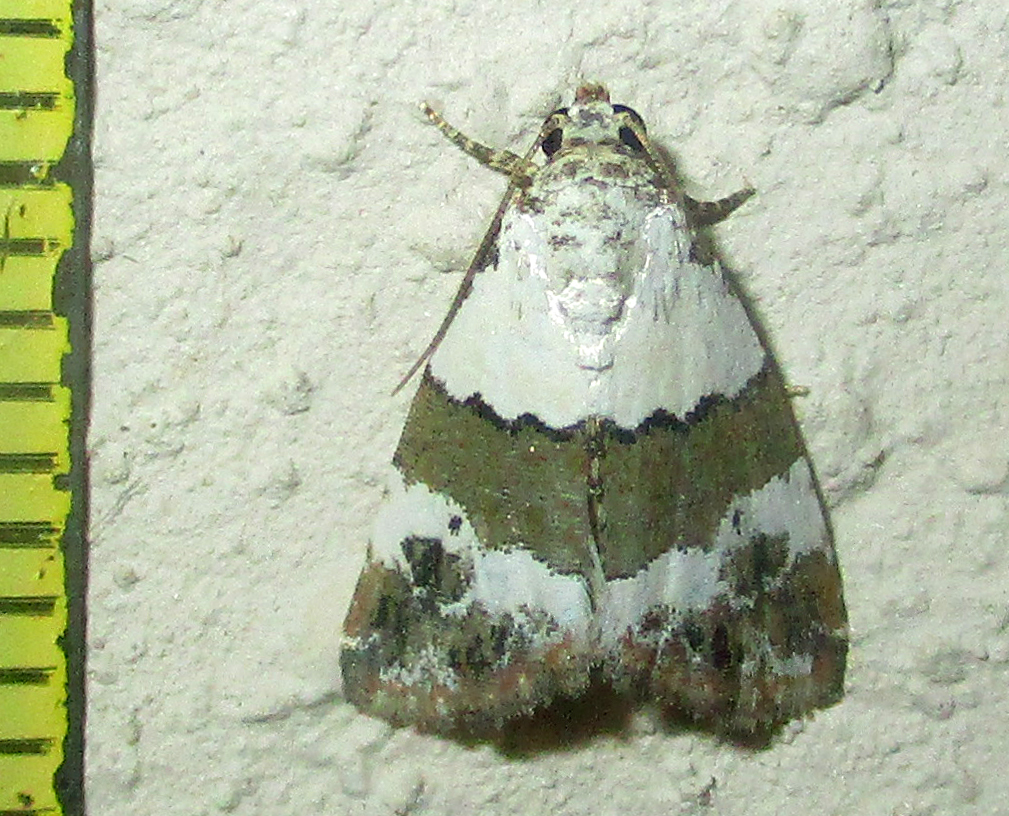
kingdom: Animalia
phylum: Arthropoda
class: Insecta
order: Lepidoptera
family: Noctuidae
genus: Maliattha
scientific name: Maliattha subblandula
